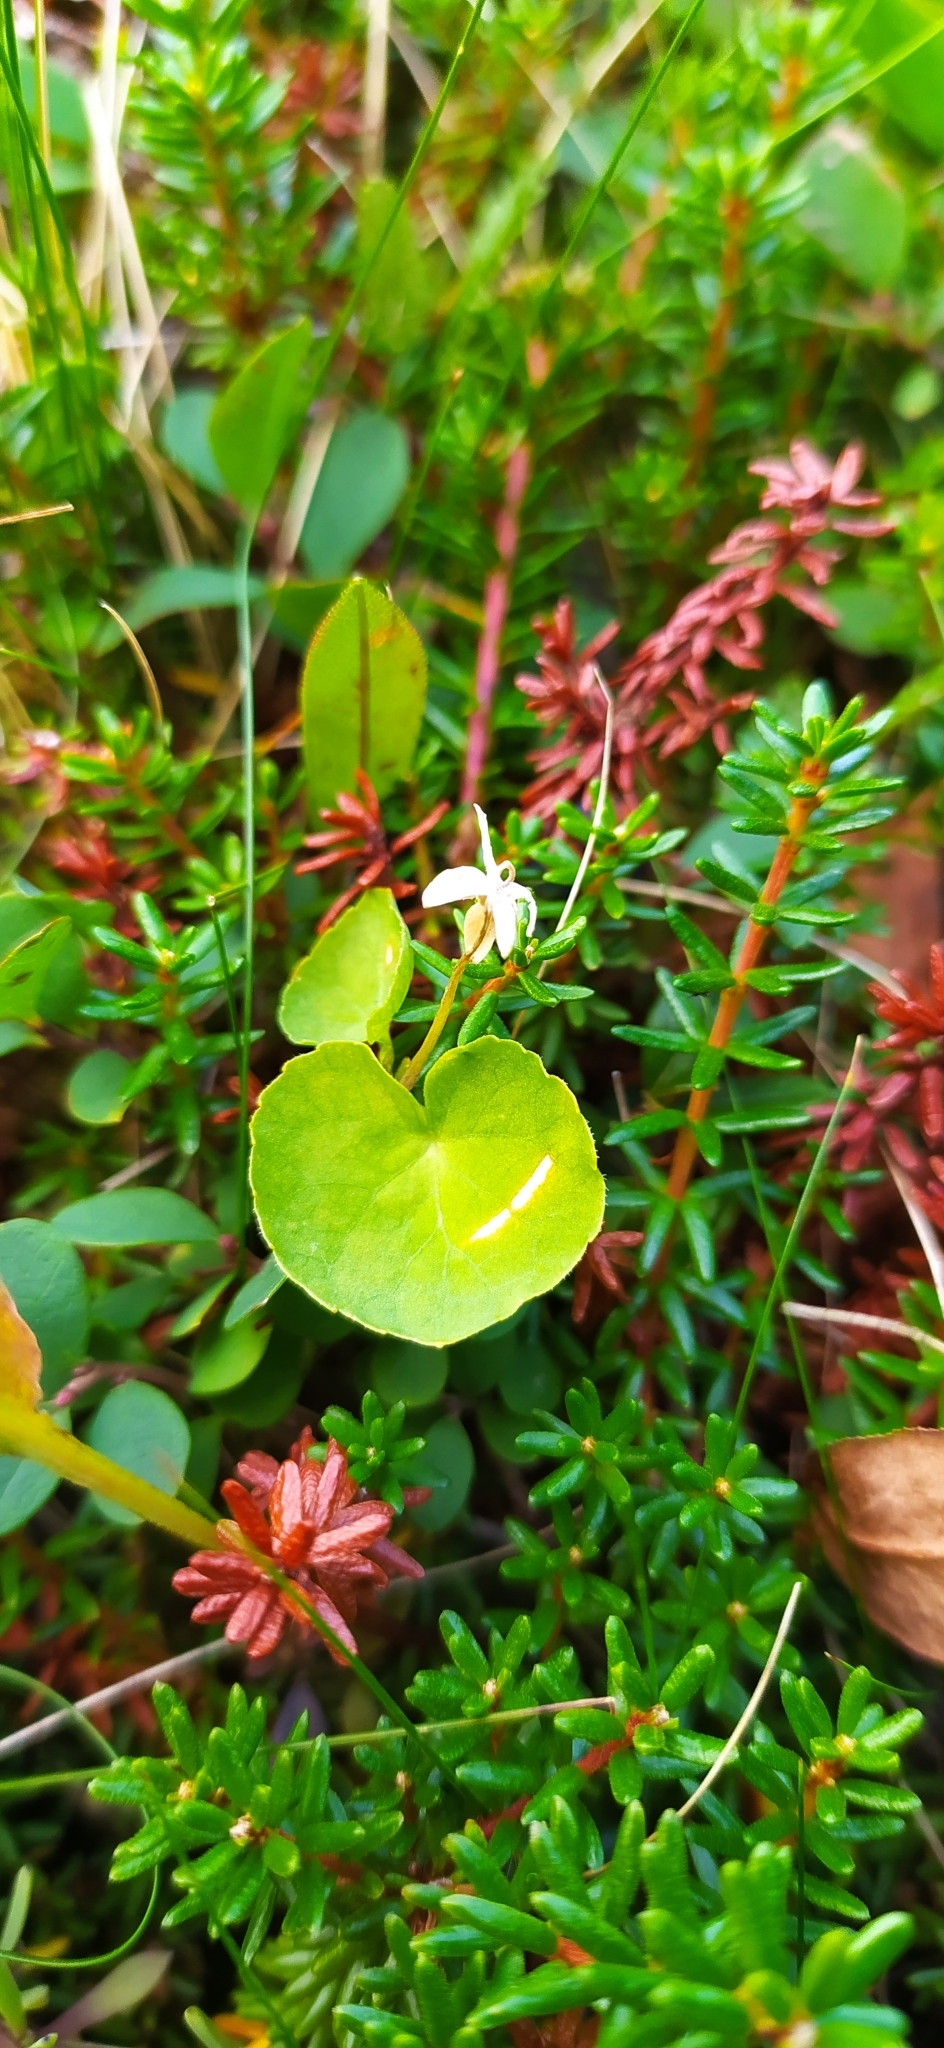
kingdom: Plantae
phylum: Tracheophyta
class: Magnoliopsida
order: Malpighiales
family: Violaceae
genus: Viola
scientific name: Viola biflora
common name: Alpine yellow violet
